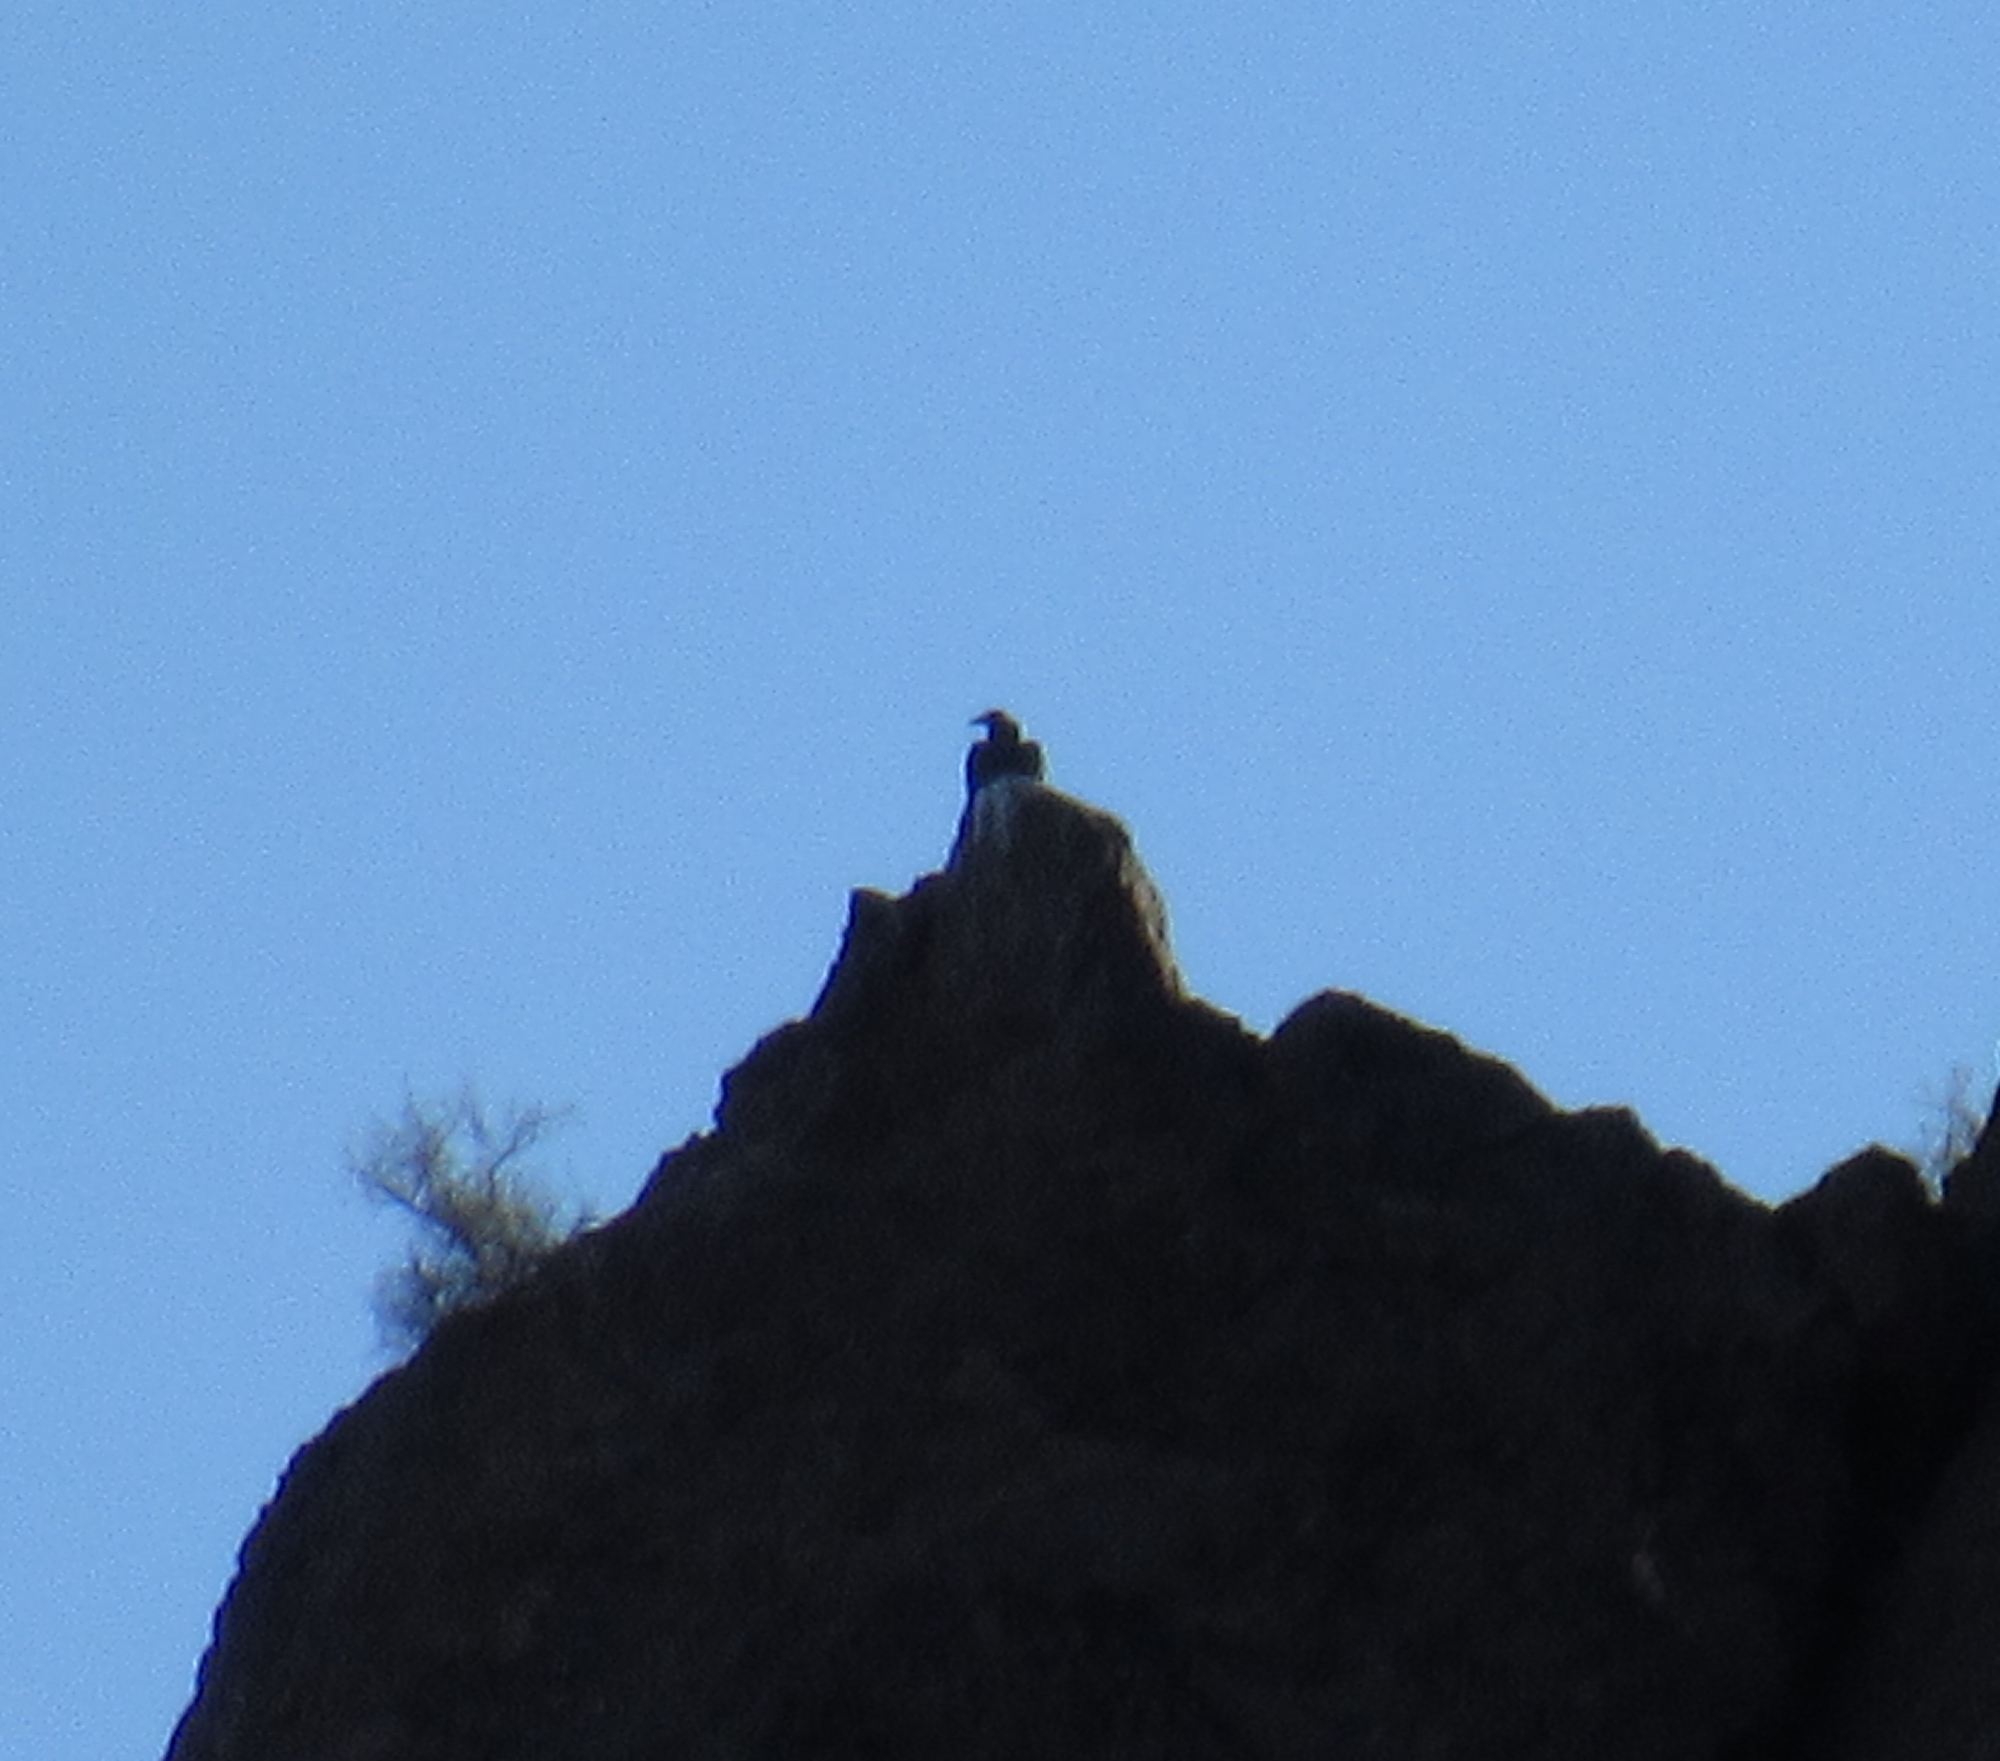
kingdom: Animalia
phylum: Chordata
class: Aves
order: Accipitriformes
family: Cathartidae
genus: Coragyps
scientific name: Coragyps atratus
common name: Black vulture
